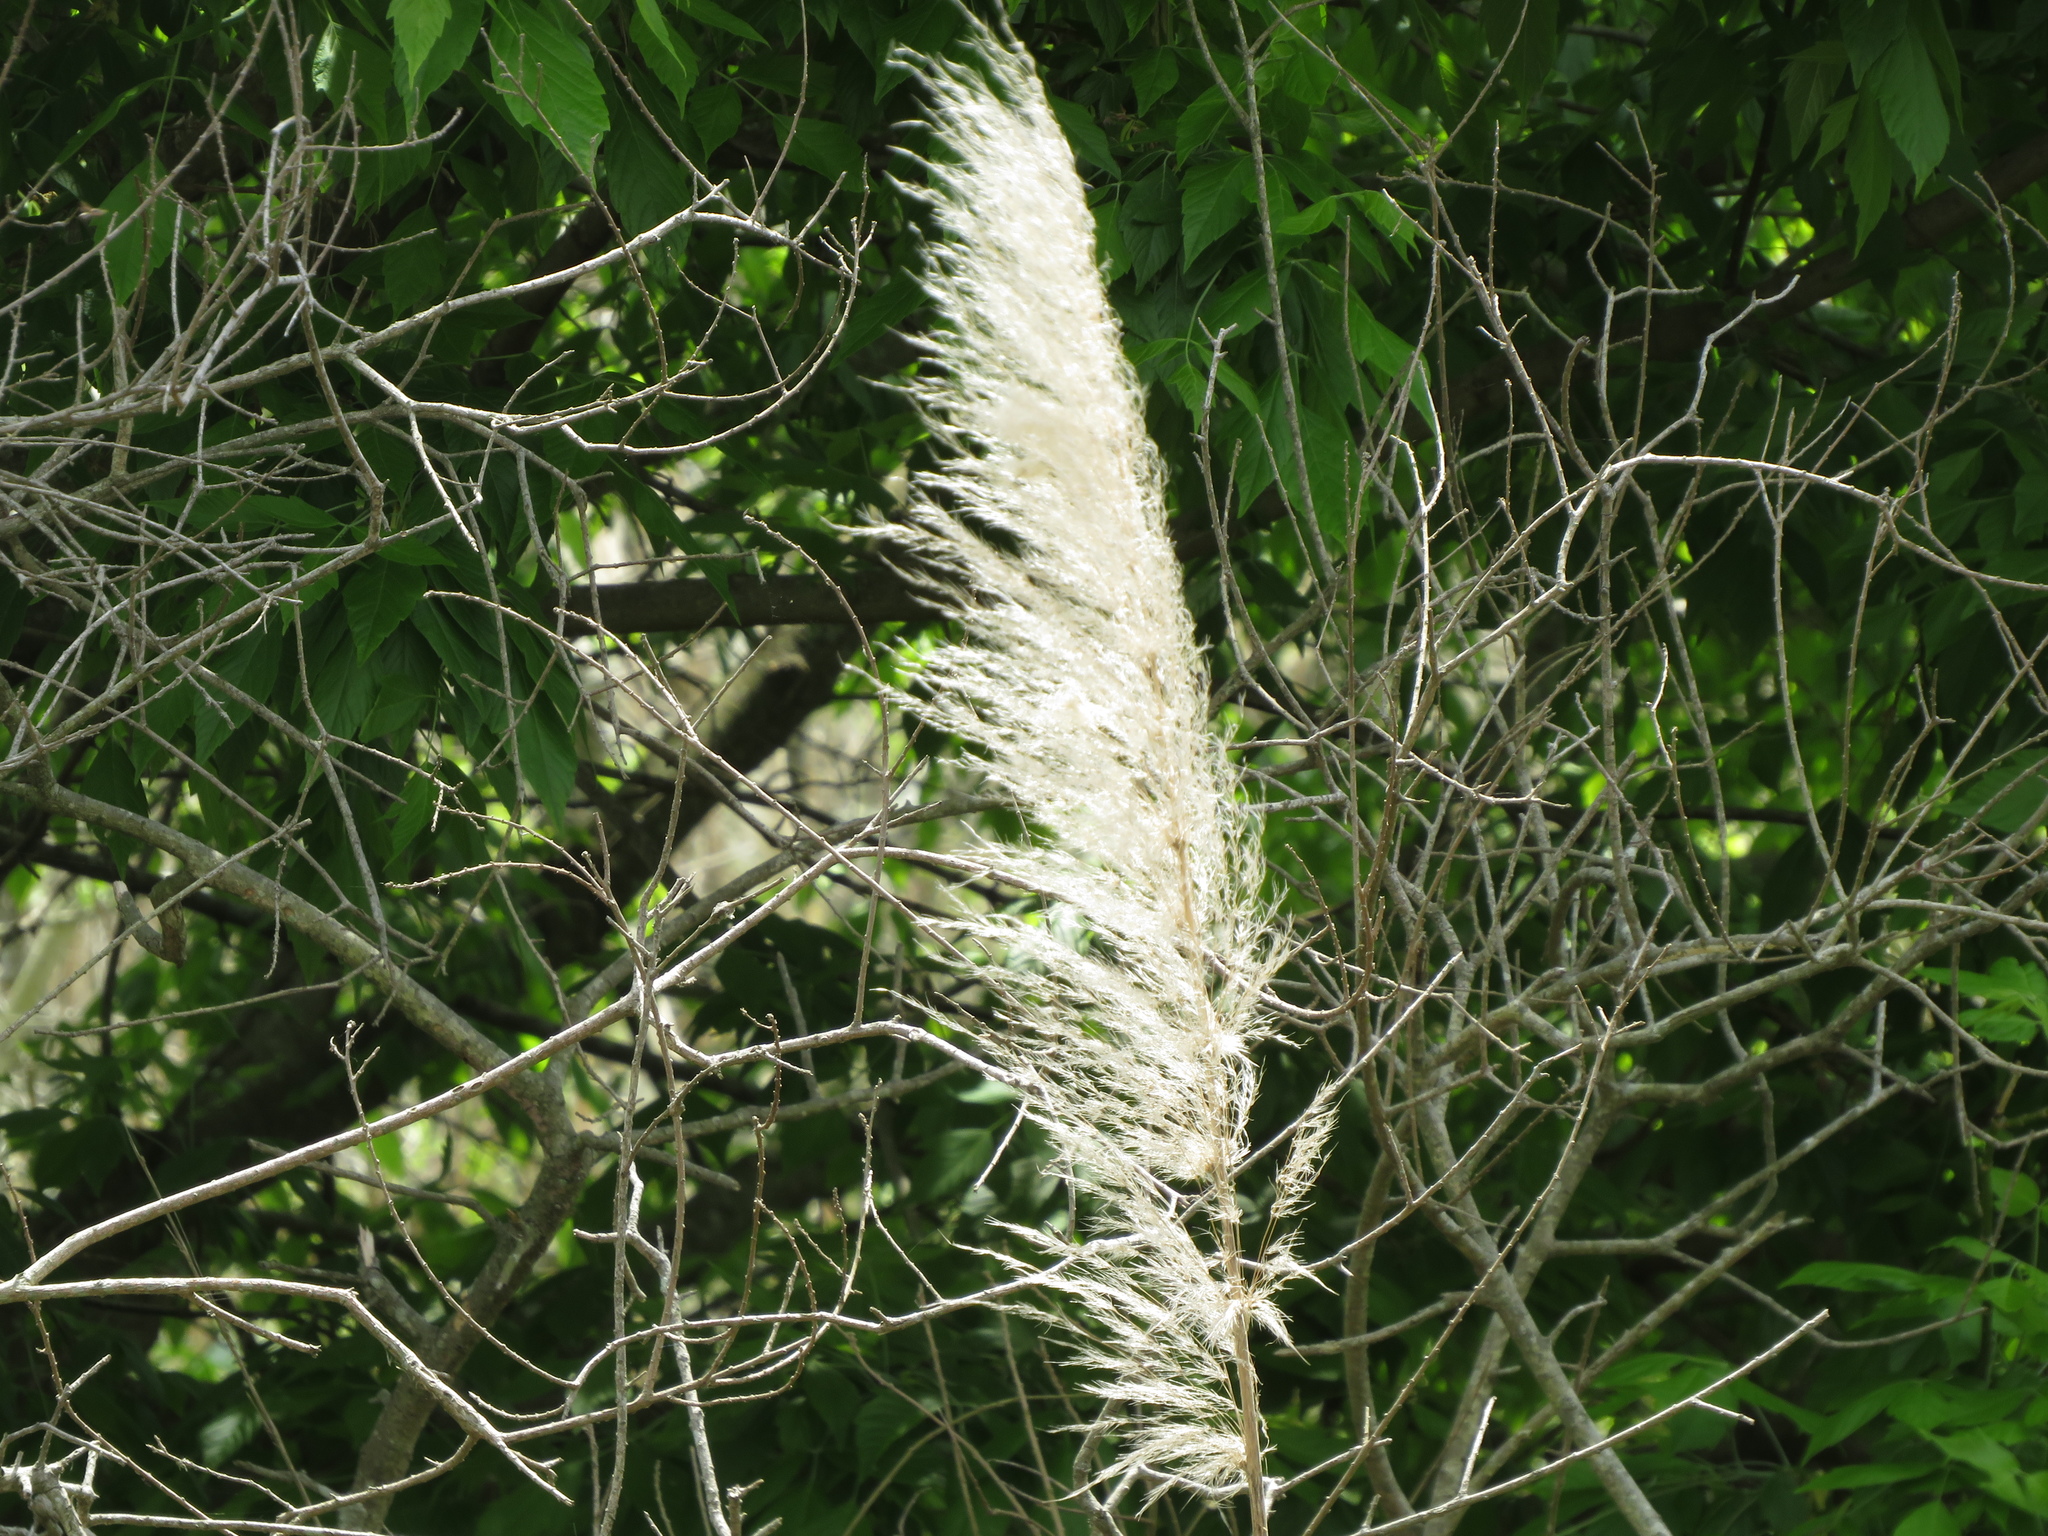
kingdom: Plantae
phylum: Tracheophyta
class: Liliopsida
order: Poales
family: Poaceae
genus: Cortaderia
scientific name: Cortaderia selloana
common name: Uruguayan pampas grass
